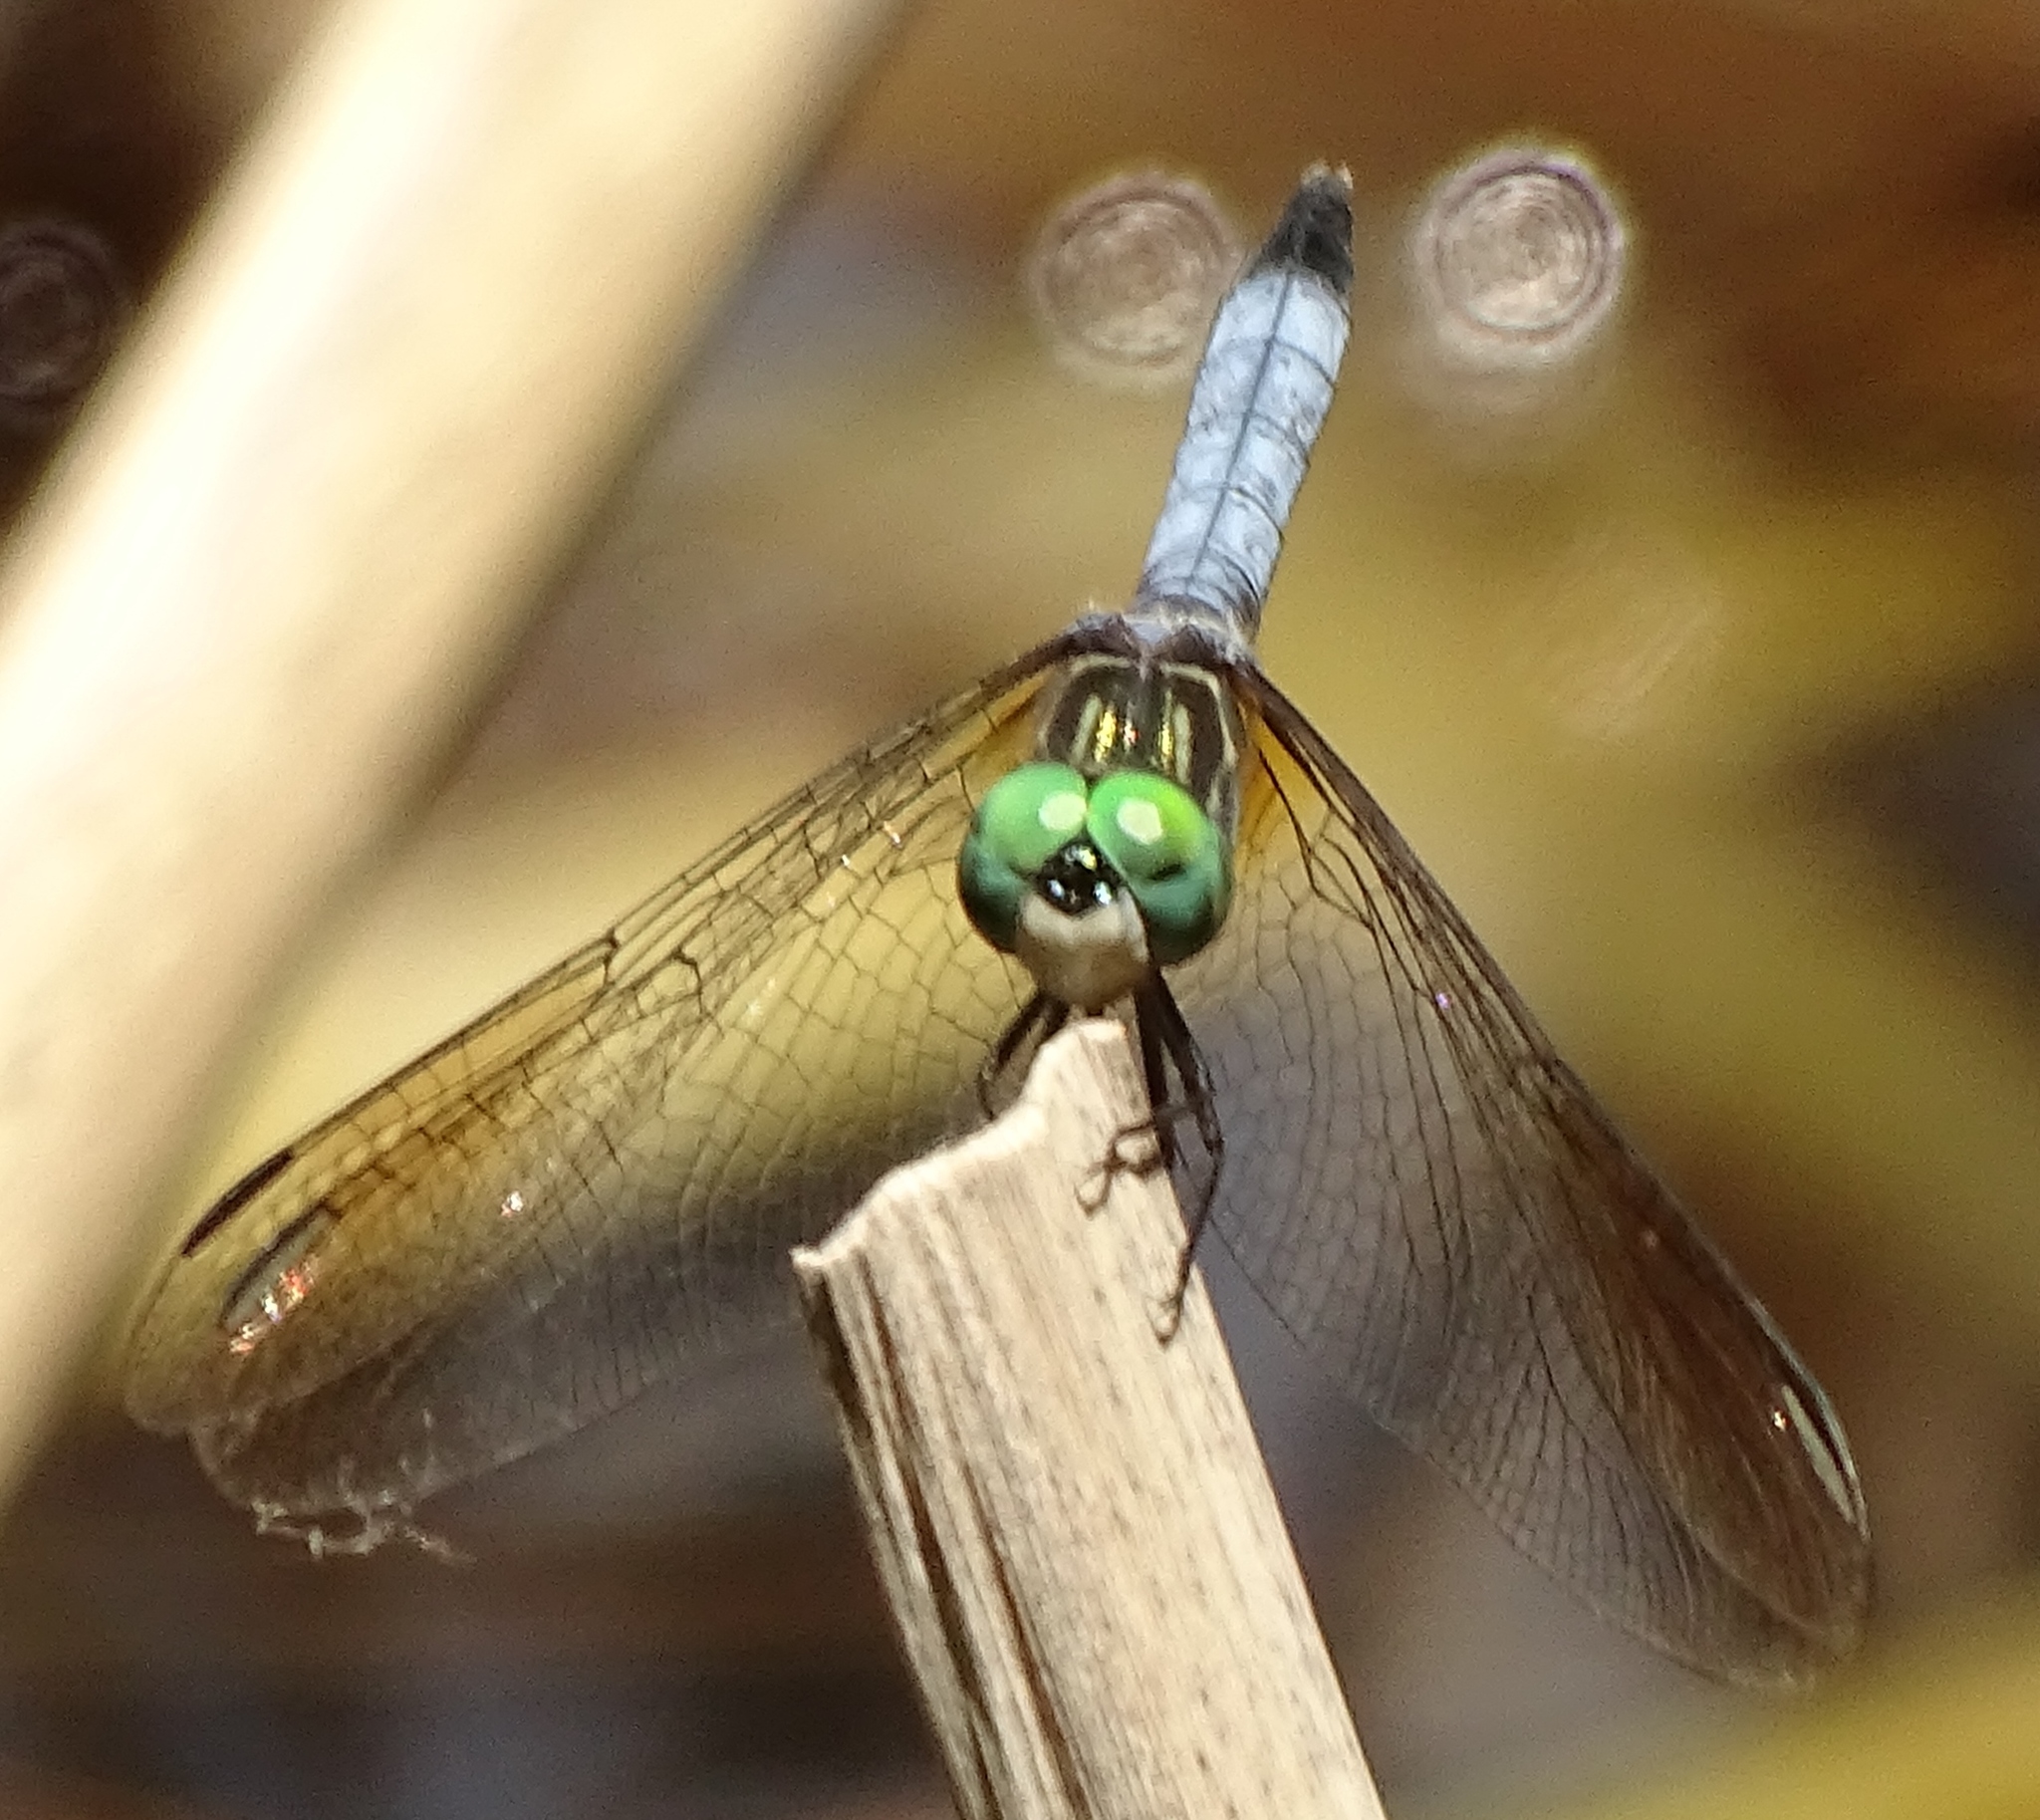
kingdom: Animalia
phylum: Arthropoda
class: Insecta
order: Odonata
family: Libellulidae
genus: Pachydiplax
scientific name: Pachydiplax longipennis
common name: Blue dasher
